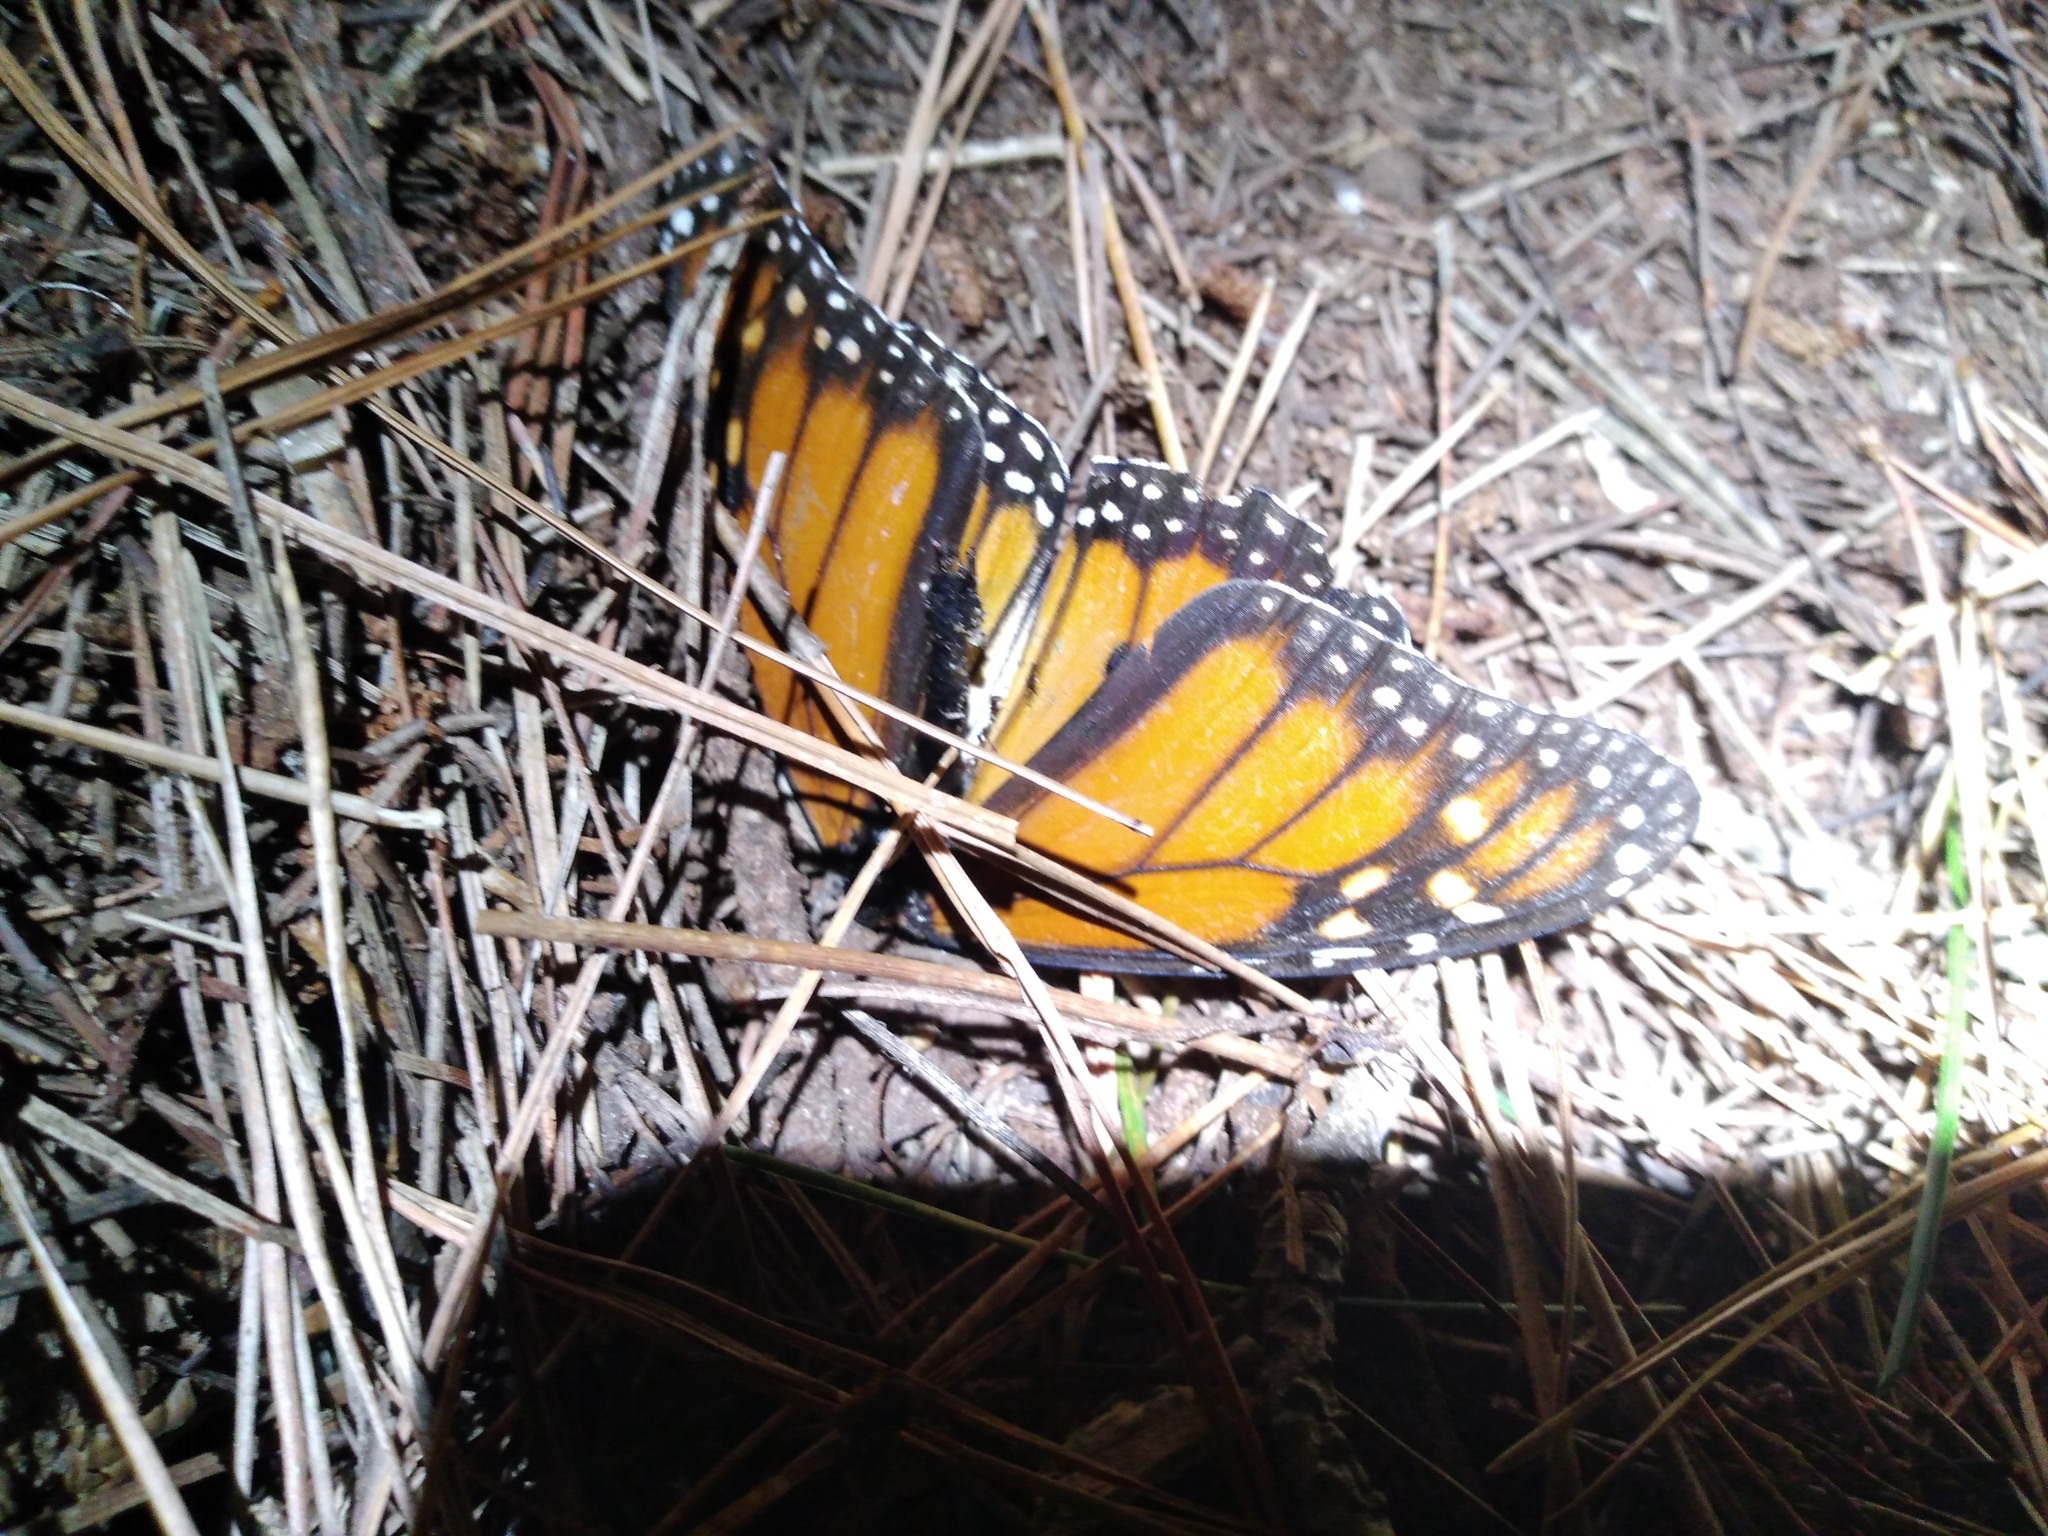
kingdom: Animalia
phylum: Arthropoda
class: Insecta
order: Lepidoptera
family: Nymphalidae
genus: Danaus
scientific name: Danaus plexippus
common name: Monarch
